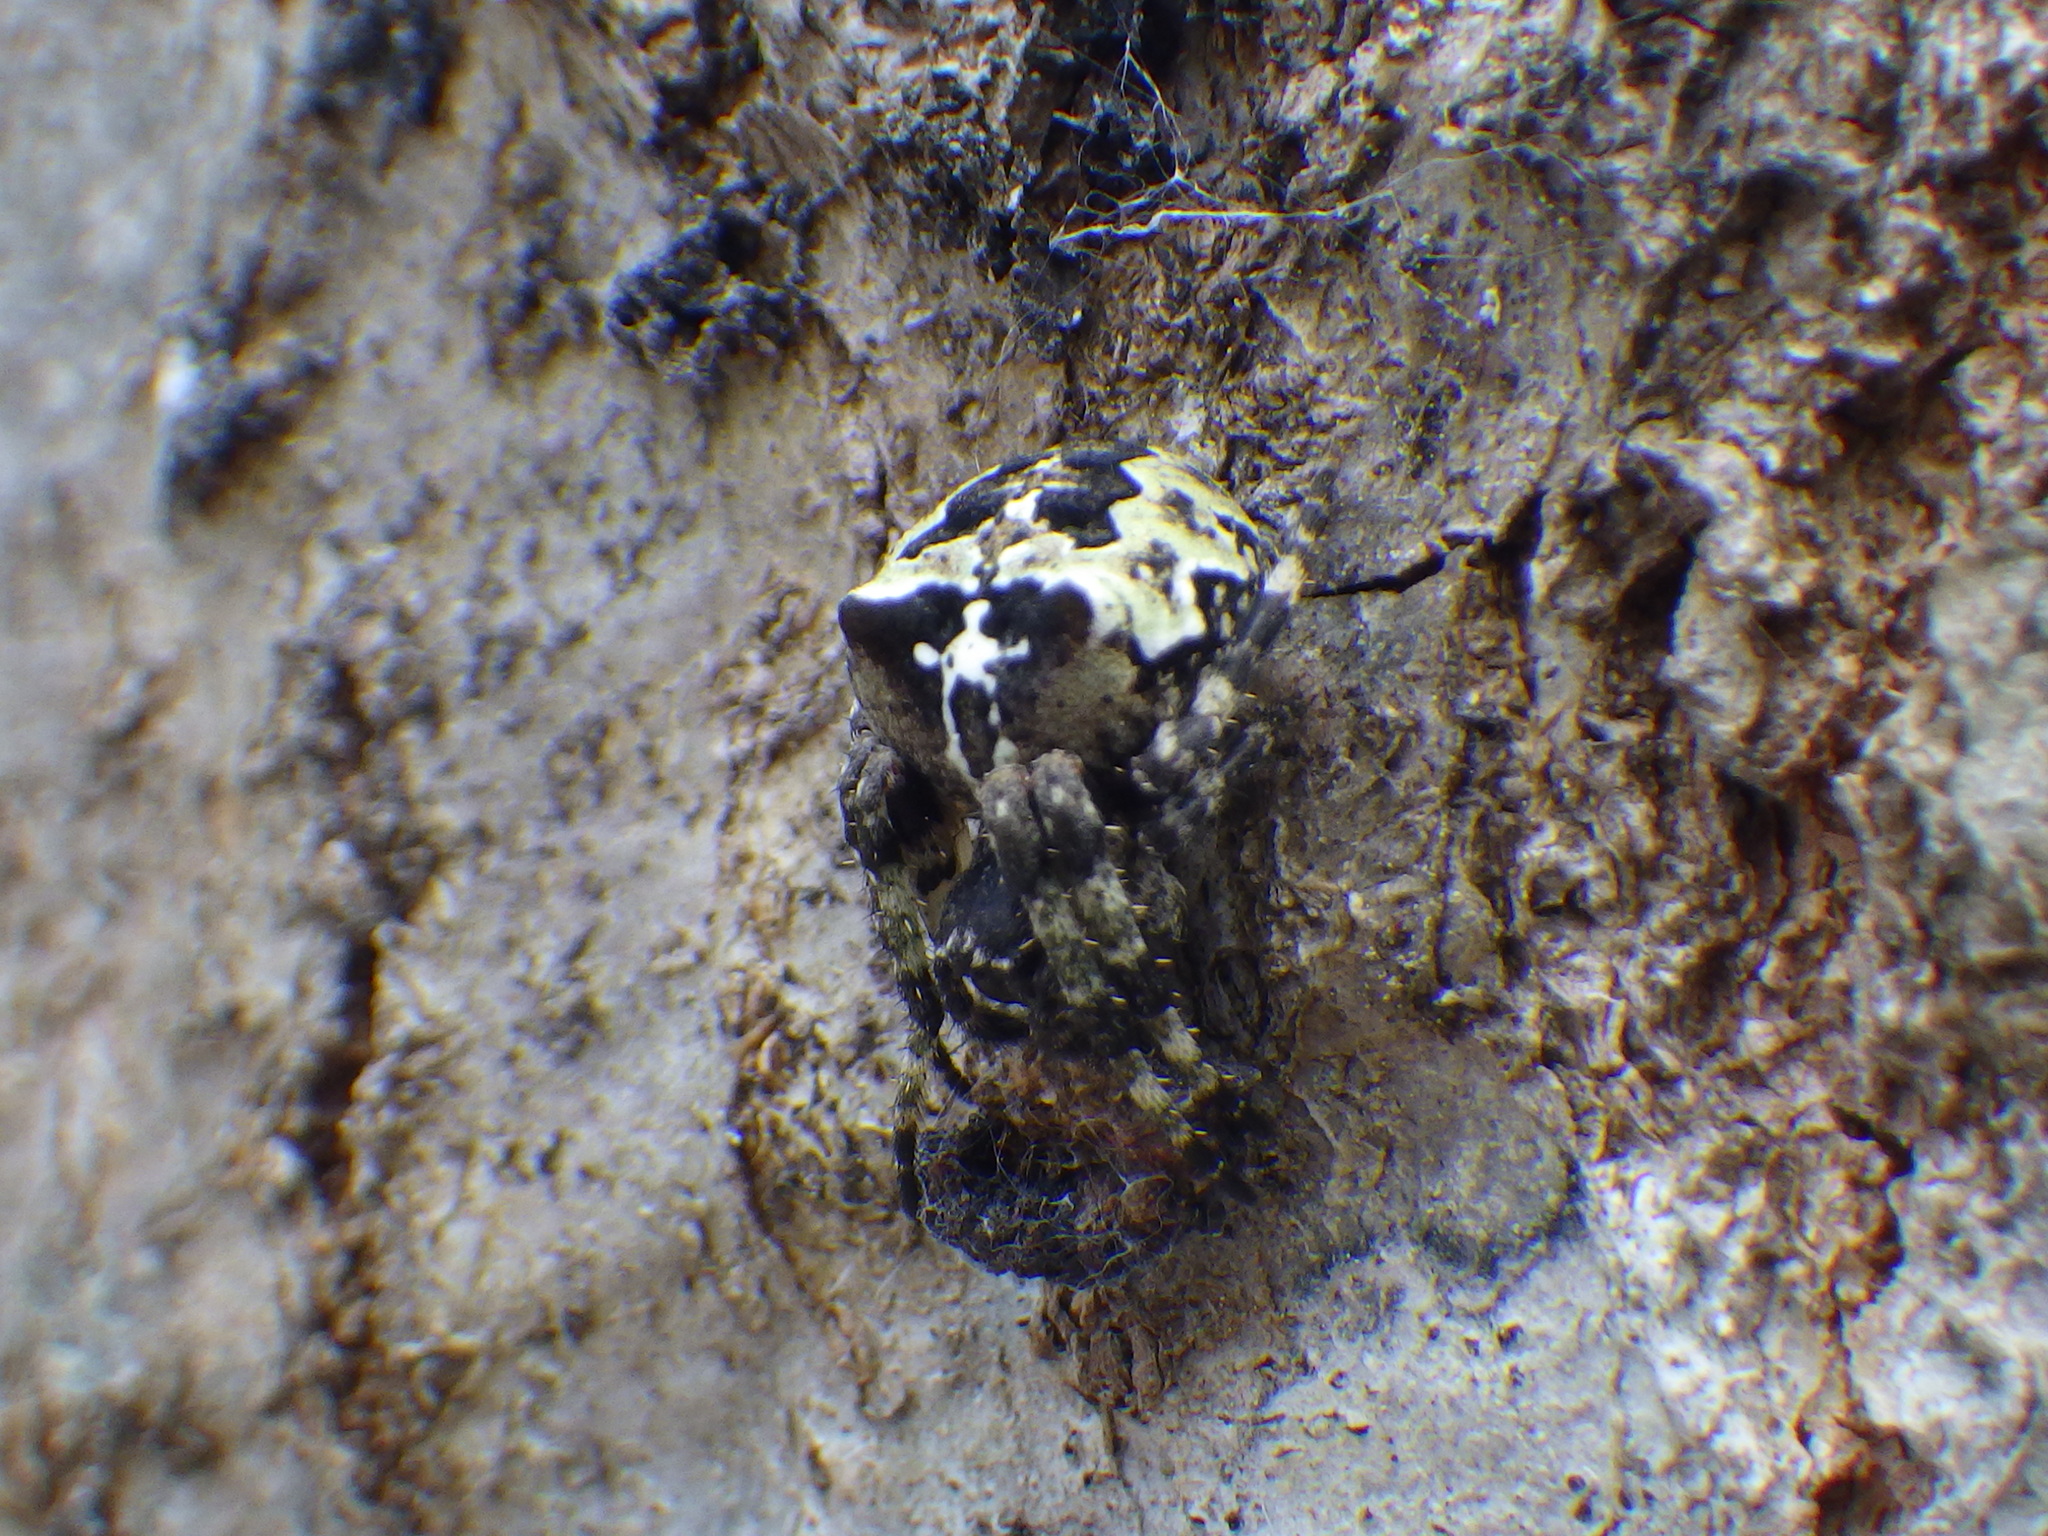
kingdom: Animalia
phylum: Arthropoda
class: Arachnida
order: Araneae
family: Araneidae
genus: Araneus
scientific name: Araneus bicentenarius
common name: Giant lichen orbweaver
